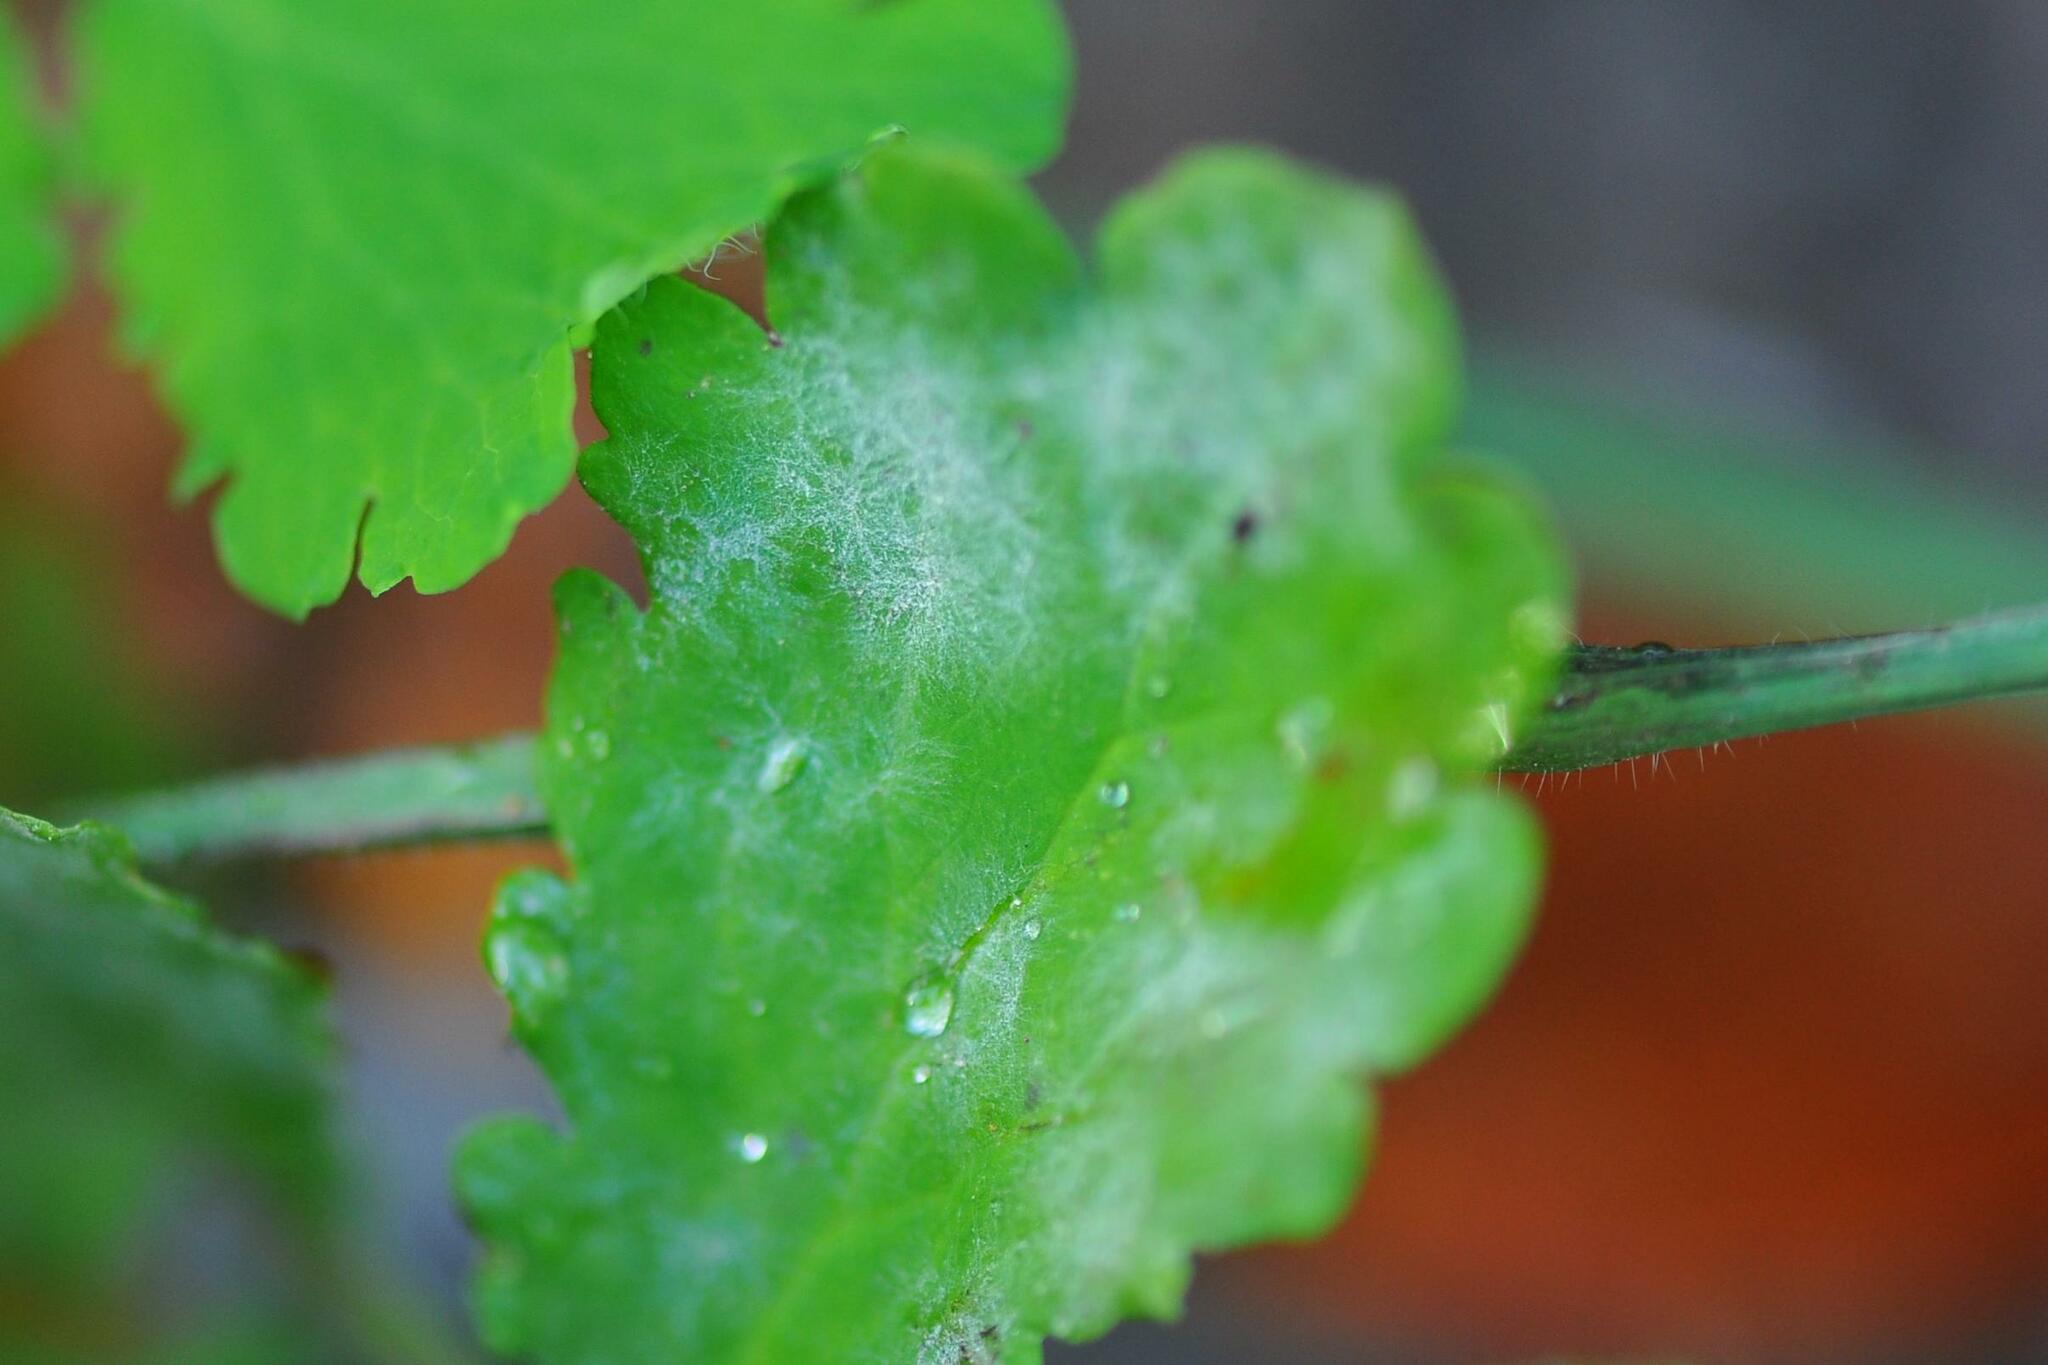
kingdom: Fungi
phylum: Ascomycota
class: Leotiomycetes
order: Helotiales
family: Erysiphaceae
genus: Erysiphe
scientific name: Erysiphe macleayae
